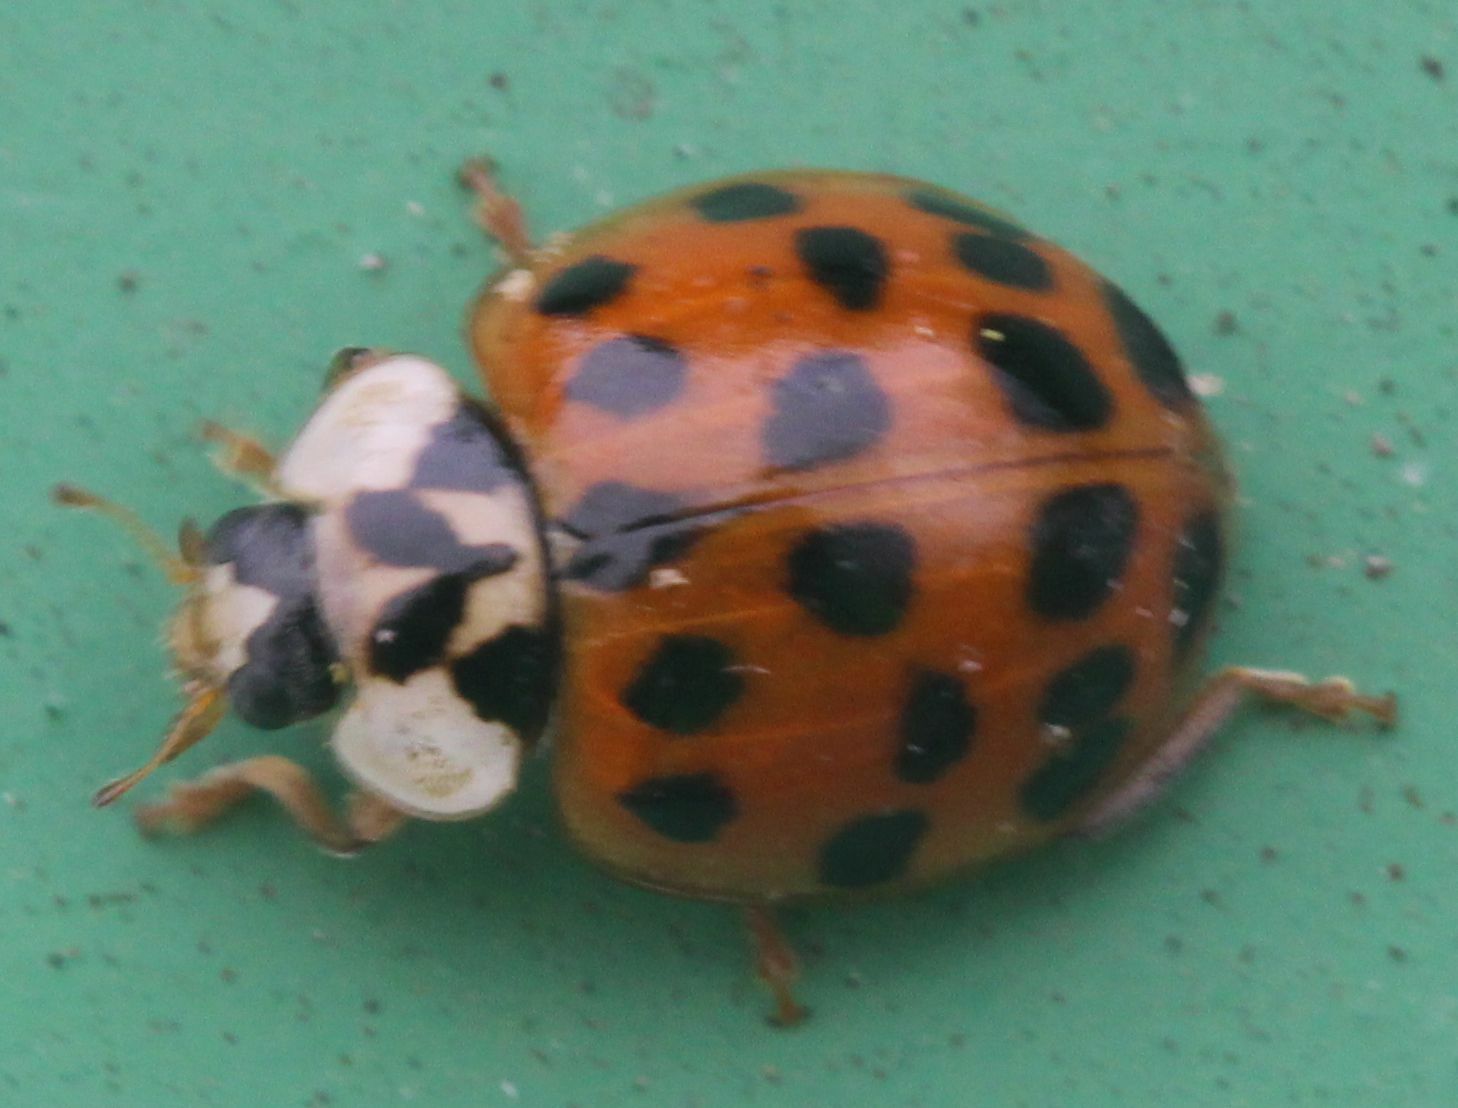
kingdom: Animalia
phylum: Arthropoda
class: Insecta
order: Coleoptera
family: Coccinellidae
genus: Harmonia
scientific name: Harmonia axyridis
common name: Harlequin ladybird
